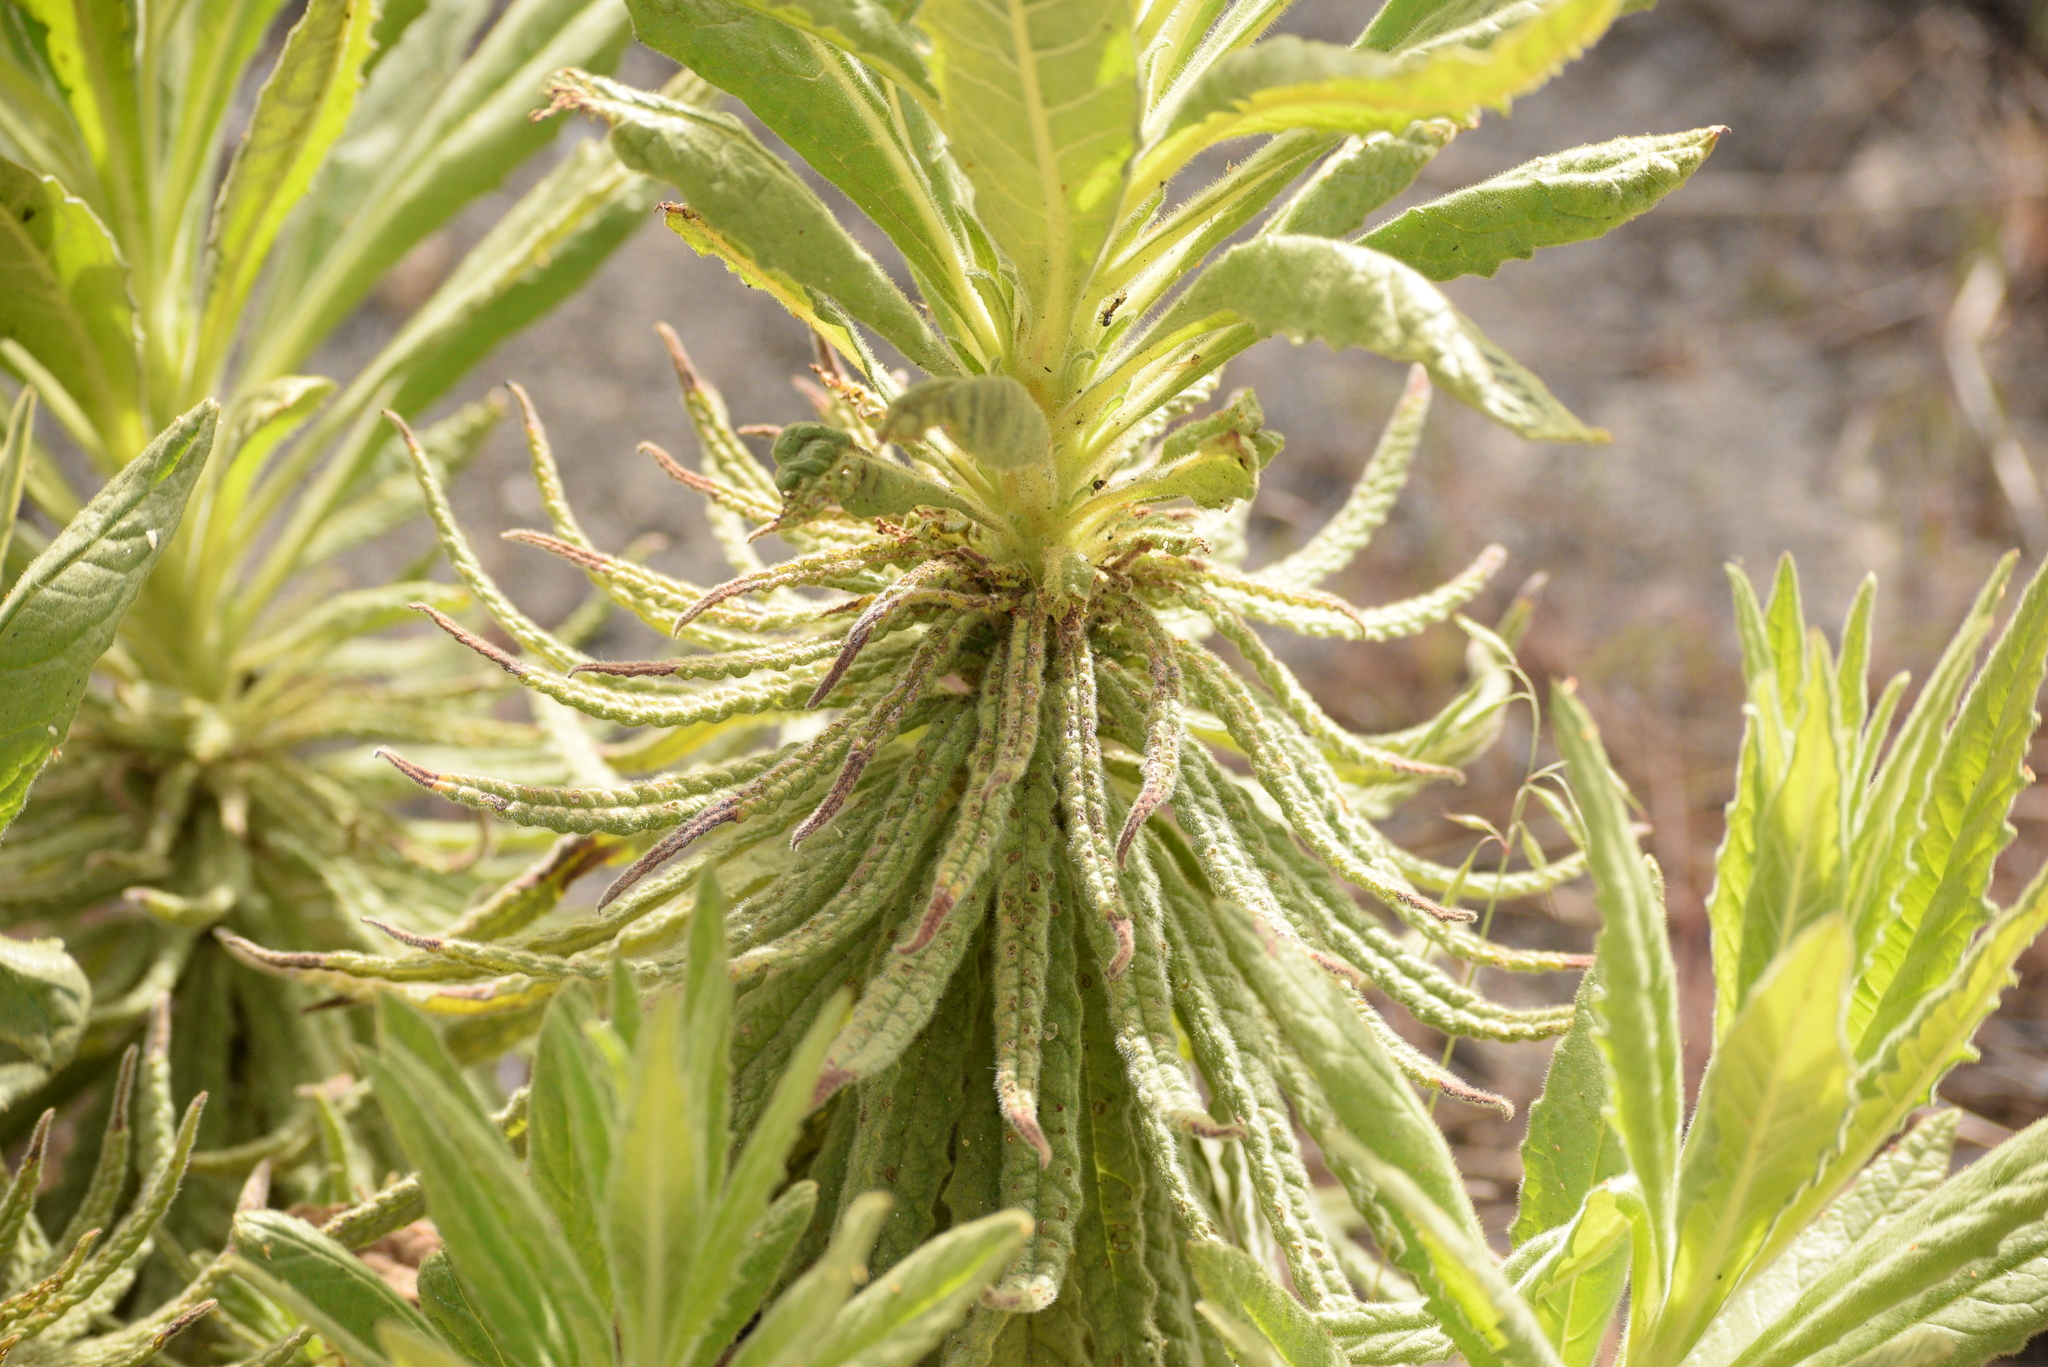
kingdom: Plantae
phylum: Tracheophyta
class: Magnoliopsida
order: Boraginales
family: Namaceae
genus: Turricula
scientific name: Turricula parryi
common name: Poodle-dog-bush
